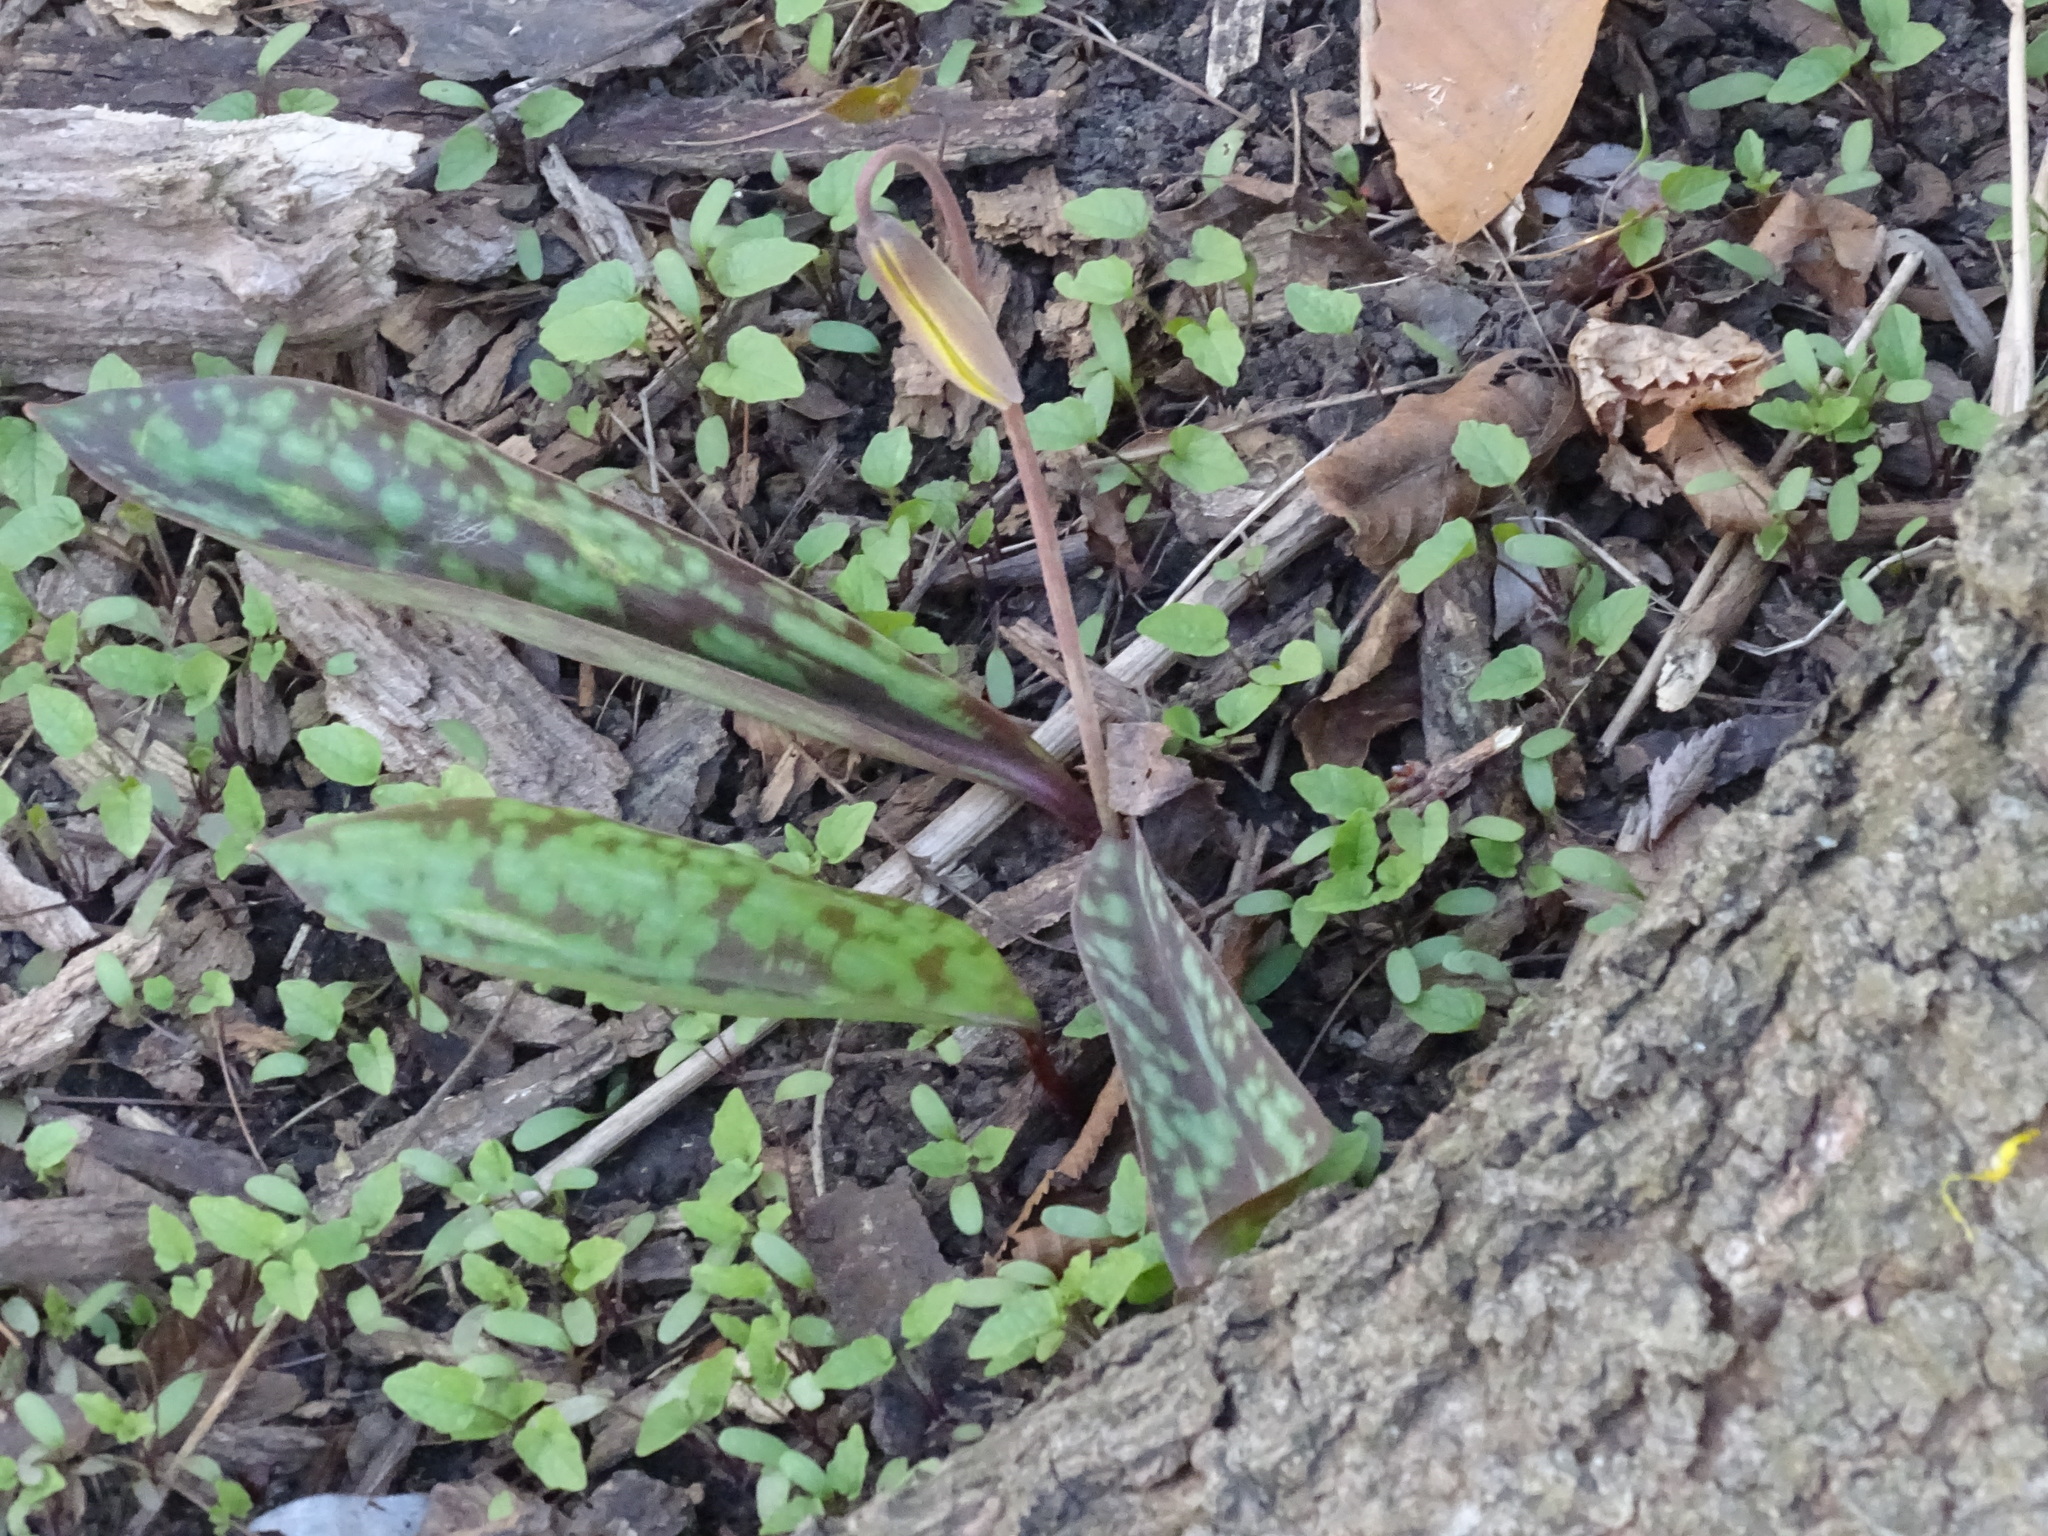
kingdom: Plantae
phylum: Tracheophyta
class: Liliopsida
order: Liliales
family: Liliaceae
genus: Erythronium
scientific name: Erythronium americanum
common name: Yellow adder's-tongue
